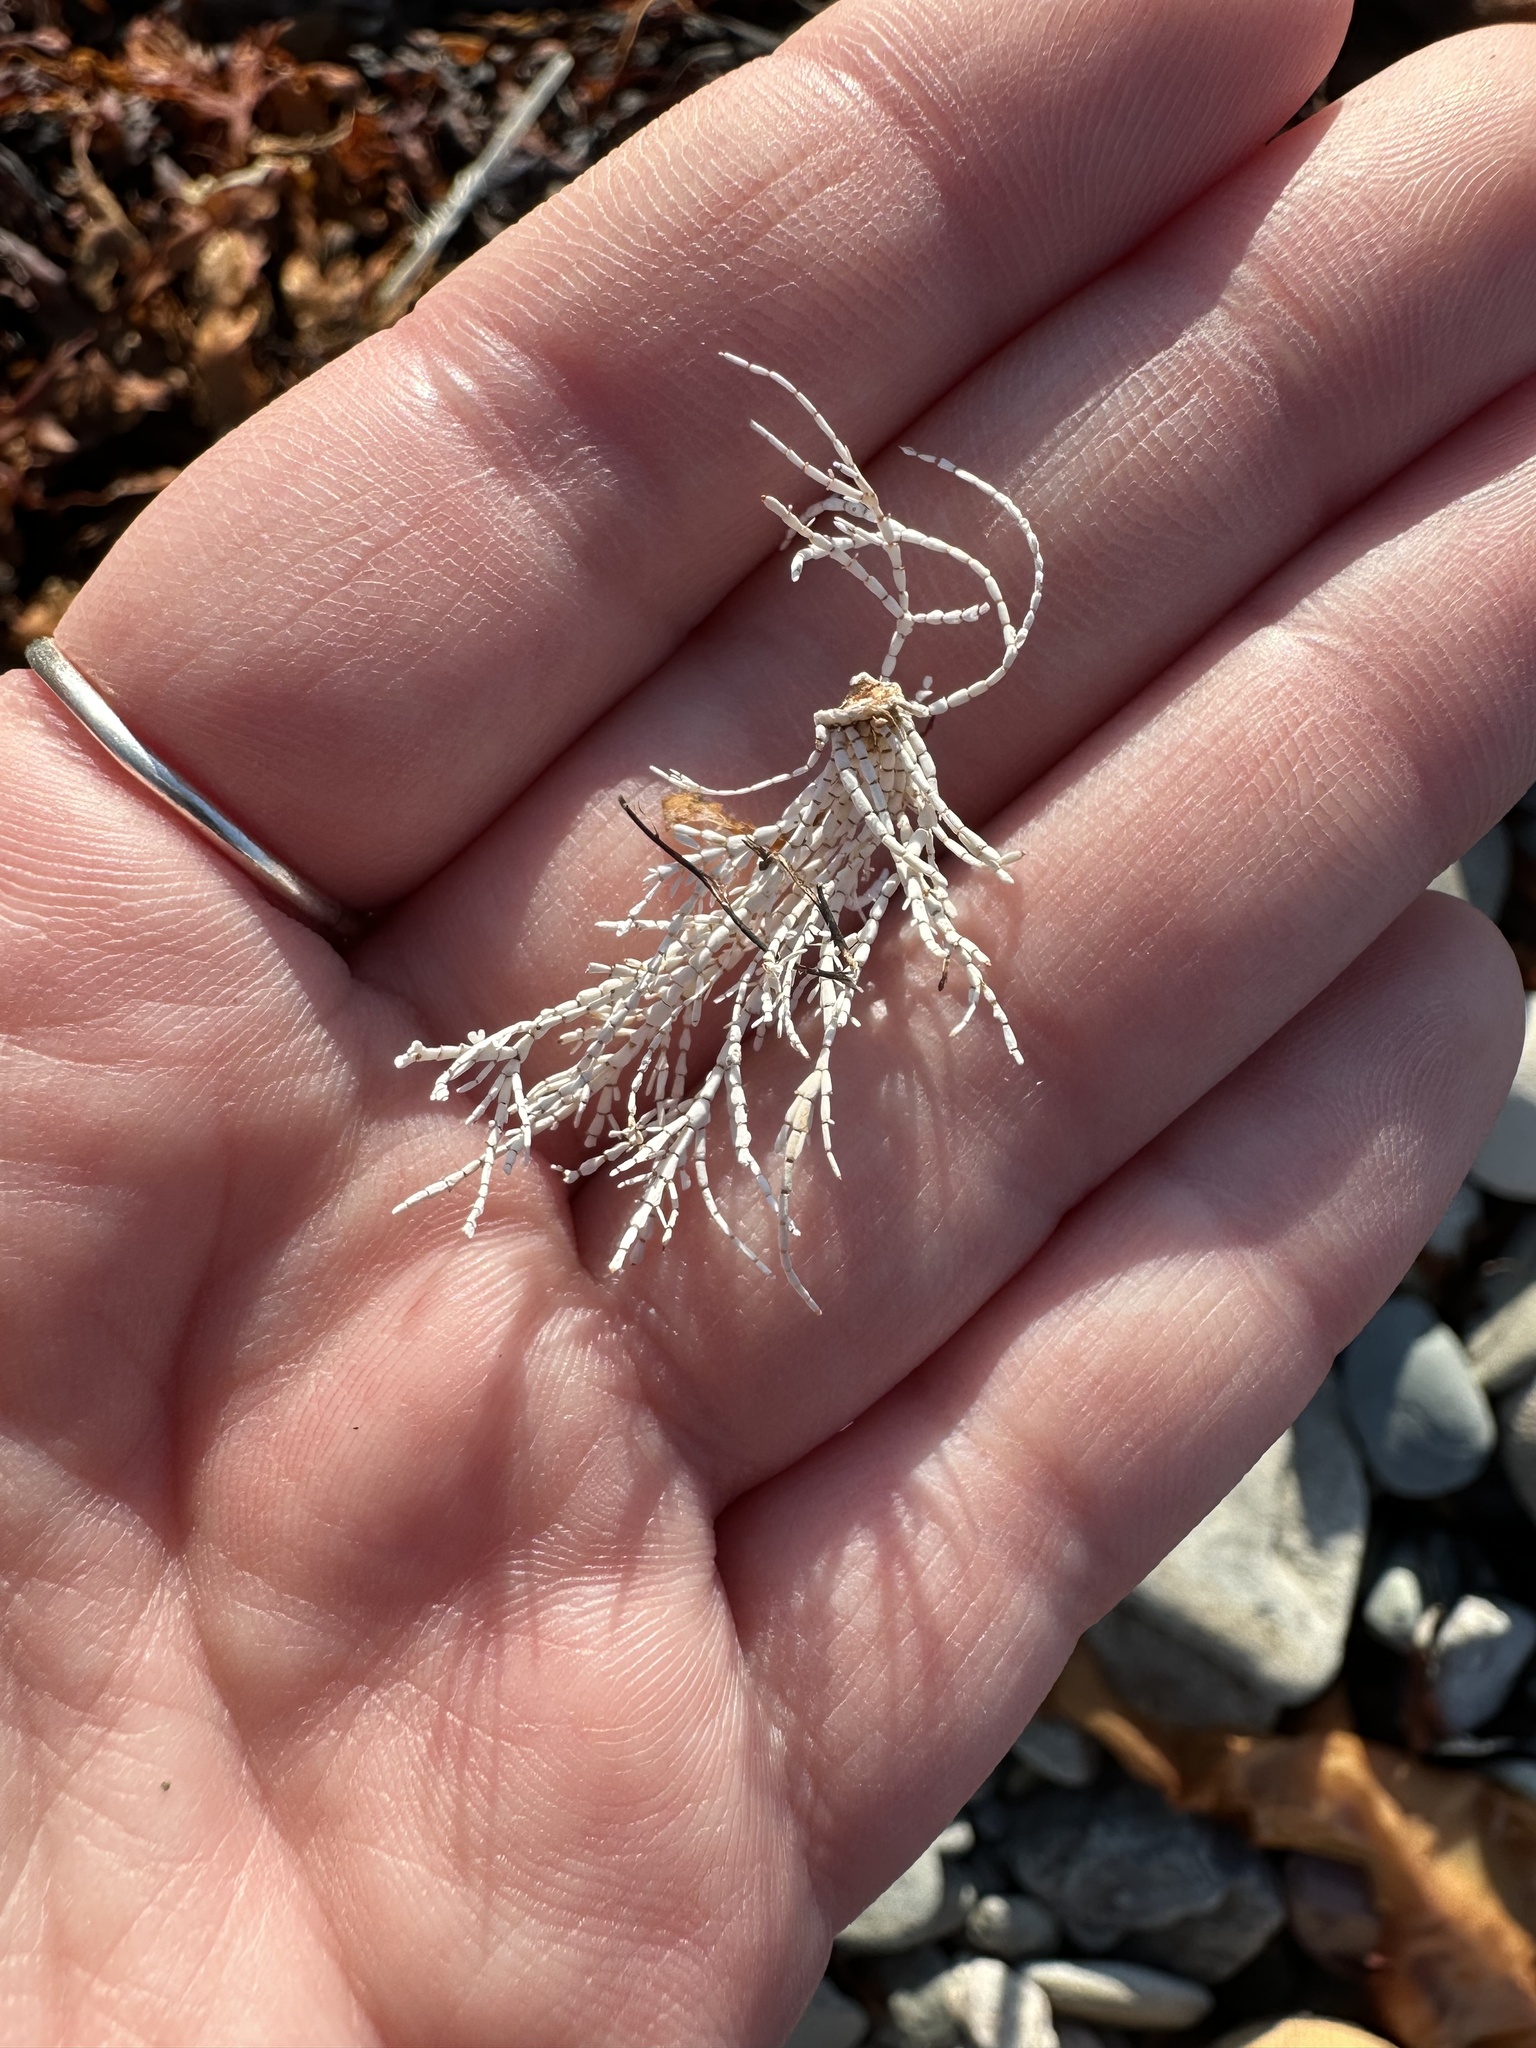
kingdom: Plantae
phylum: Rhodophyta
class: Florideophyceae
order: Corallinales
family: Corallinaceae
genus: Corallina
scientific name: Corallina officinalis
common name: Coral weed
